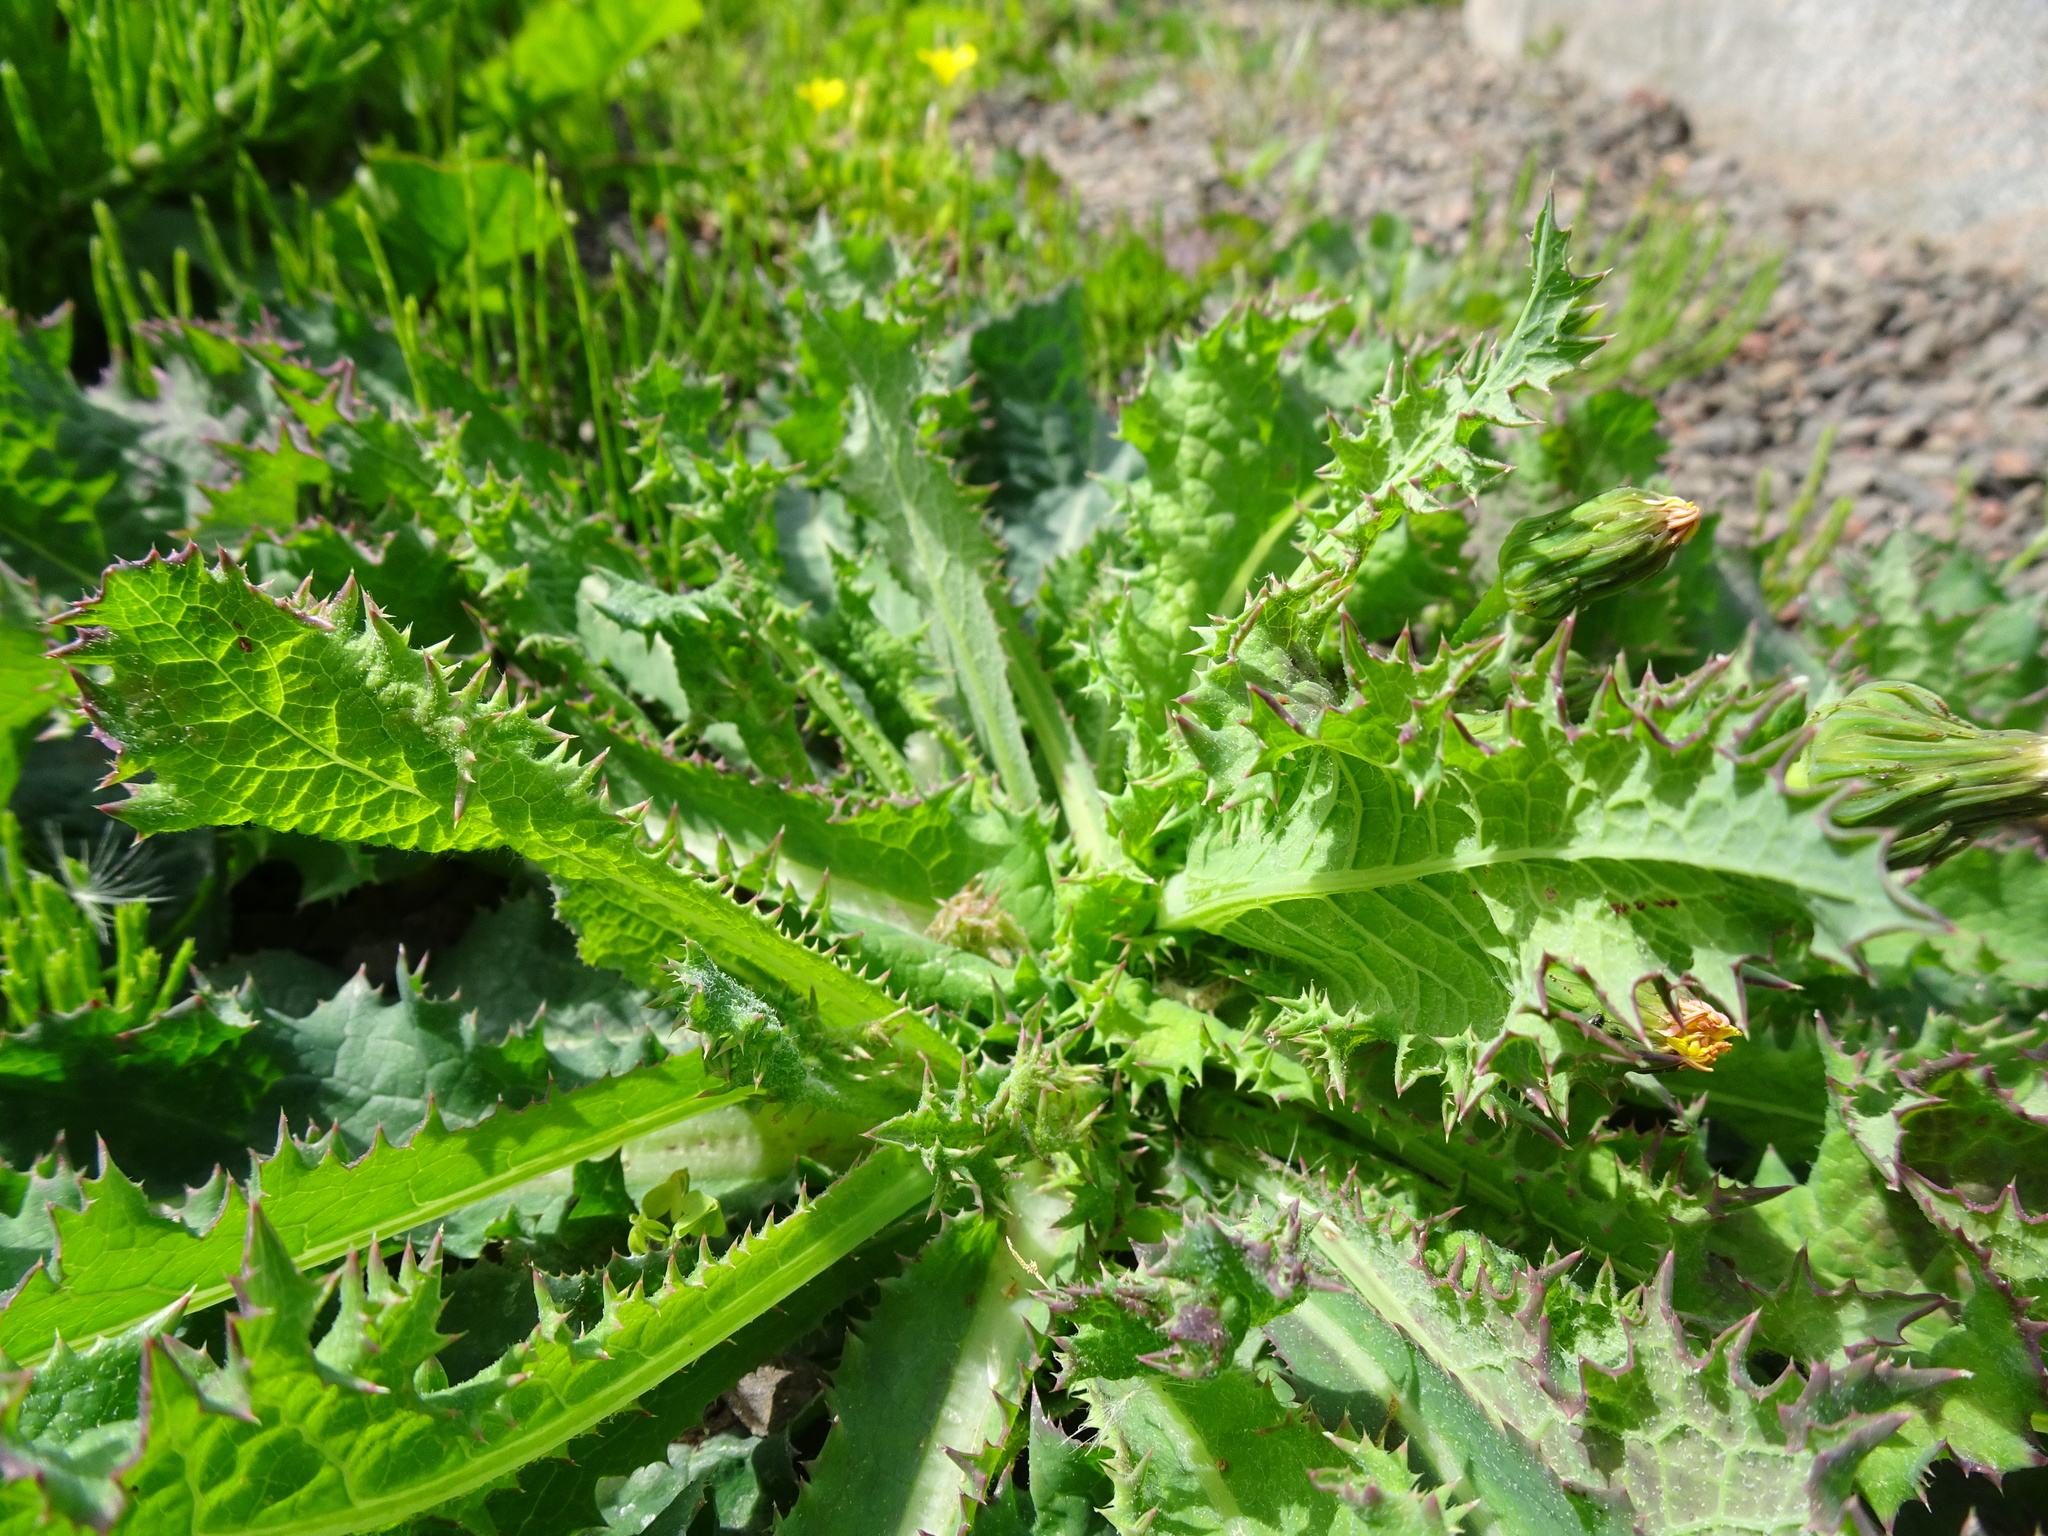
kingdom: Plantae
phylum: Tracheophyta
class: Magnoliopsida
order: Asterales
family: Asteraceae
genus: Sonchus
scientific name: Sonchus asper
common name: Prickly sow-thistle
